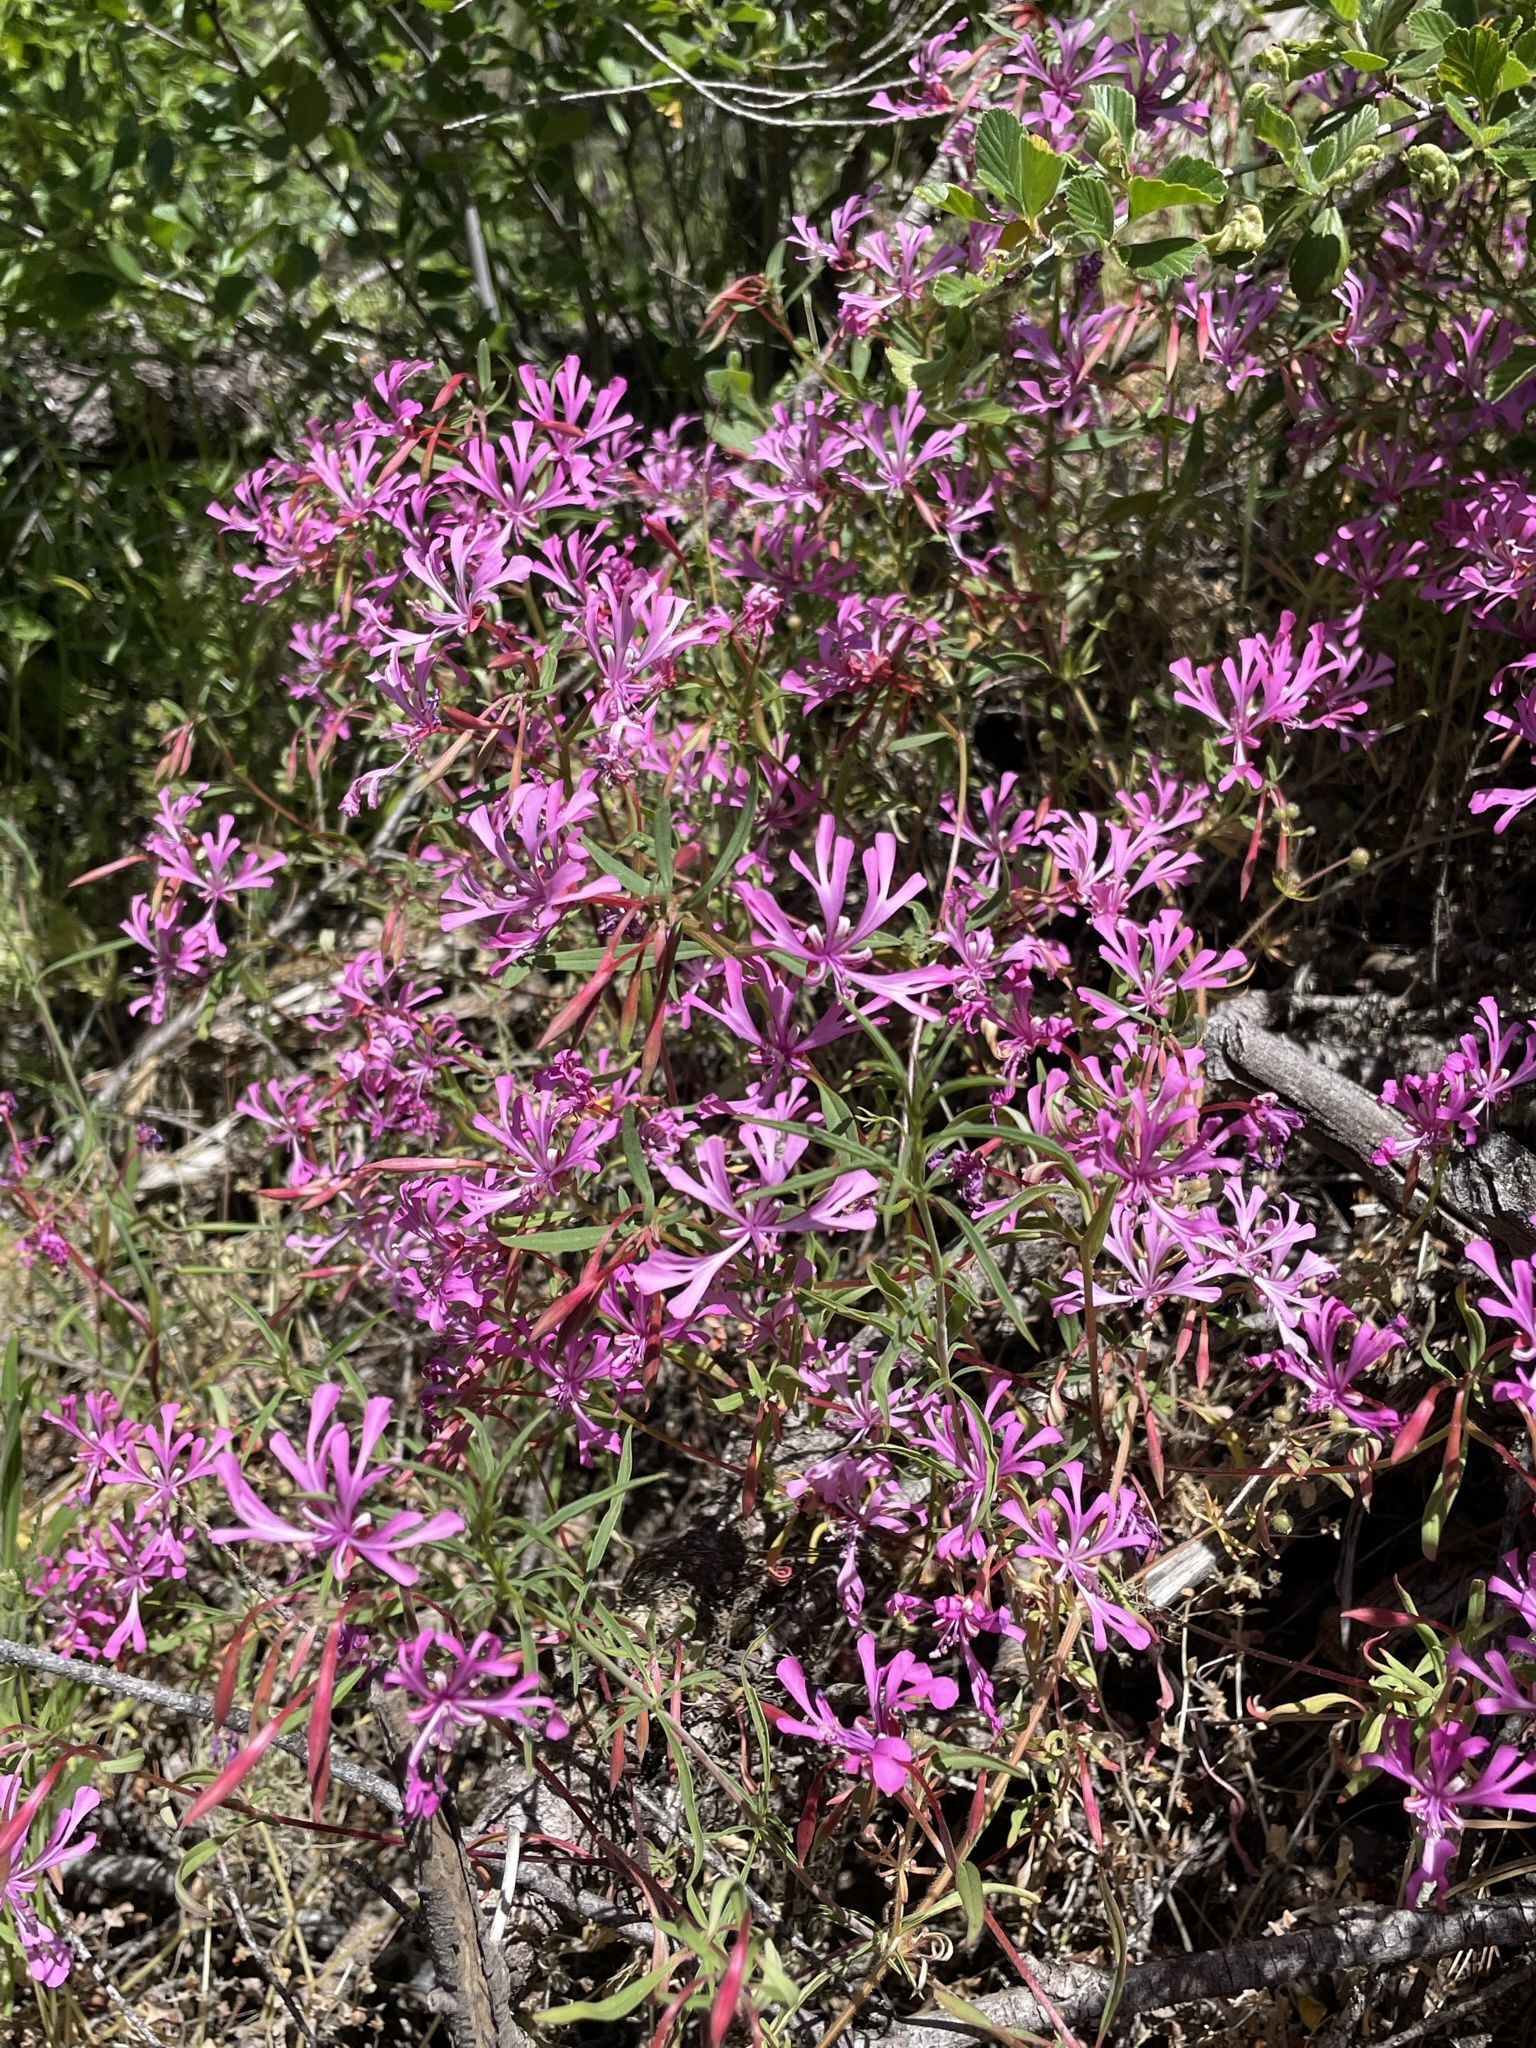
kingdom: Plantae
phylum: Tracheophyta
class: Magnoliopsida
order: Myrtales
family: Onagraceae
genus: Clarkia
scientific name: Clarkia concinna
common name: Red-ribbons
